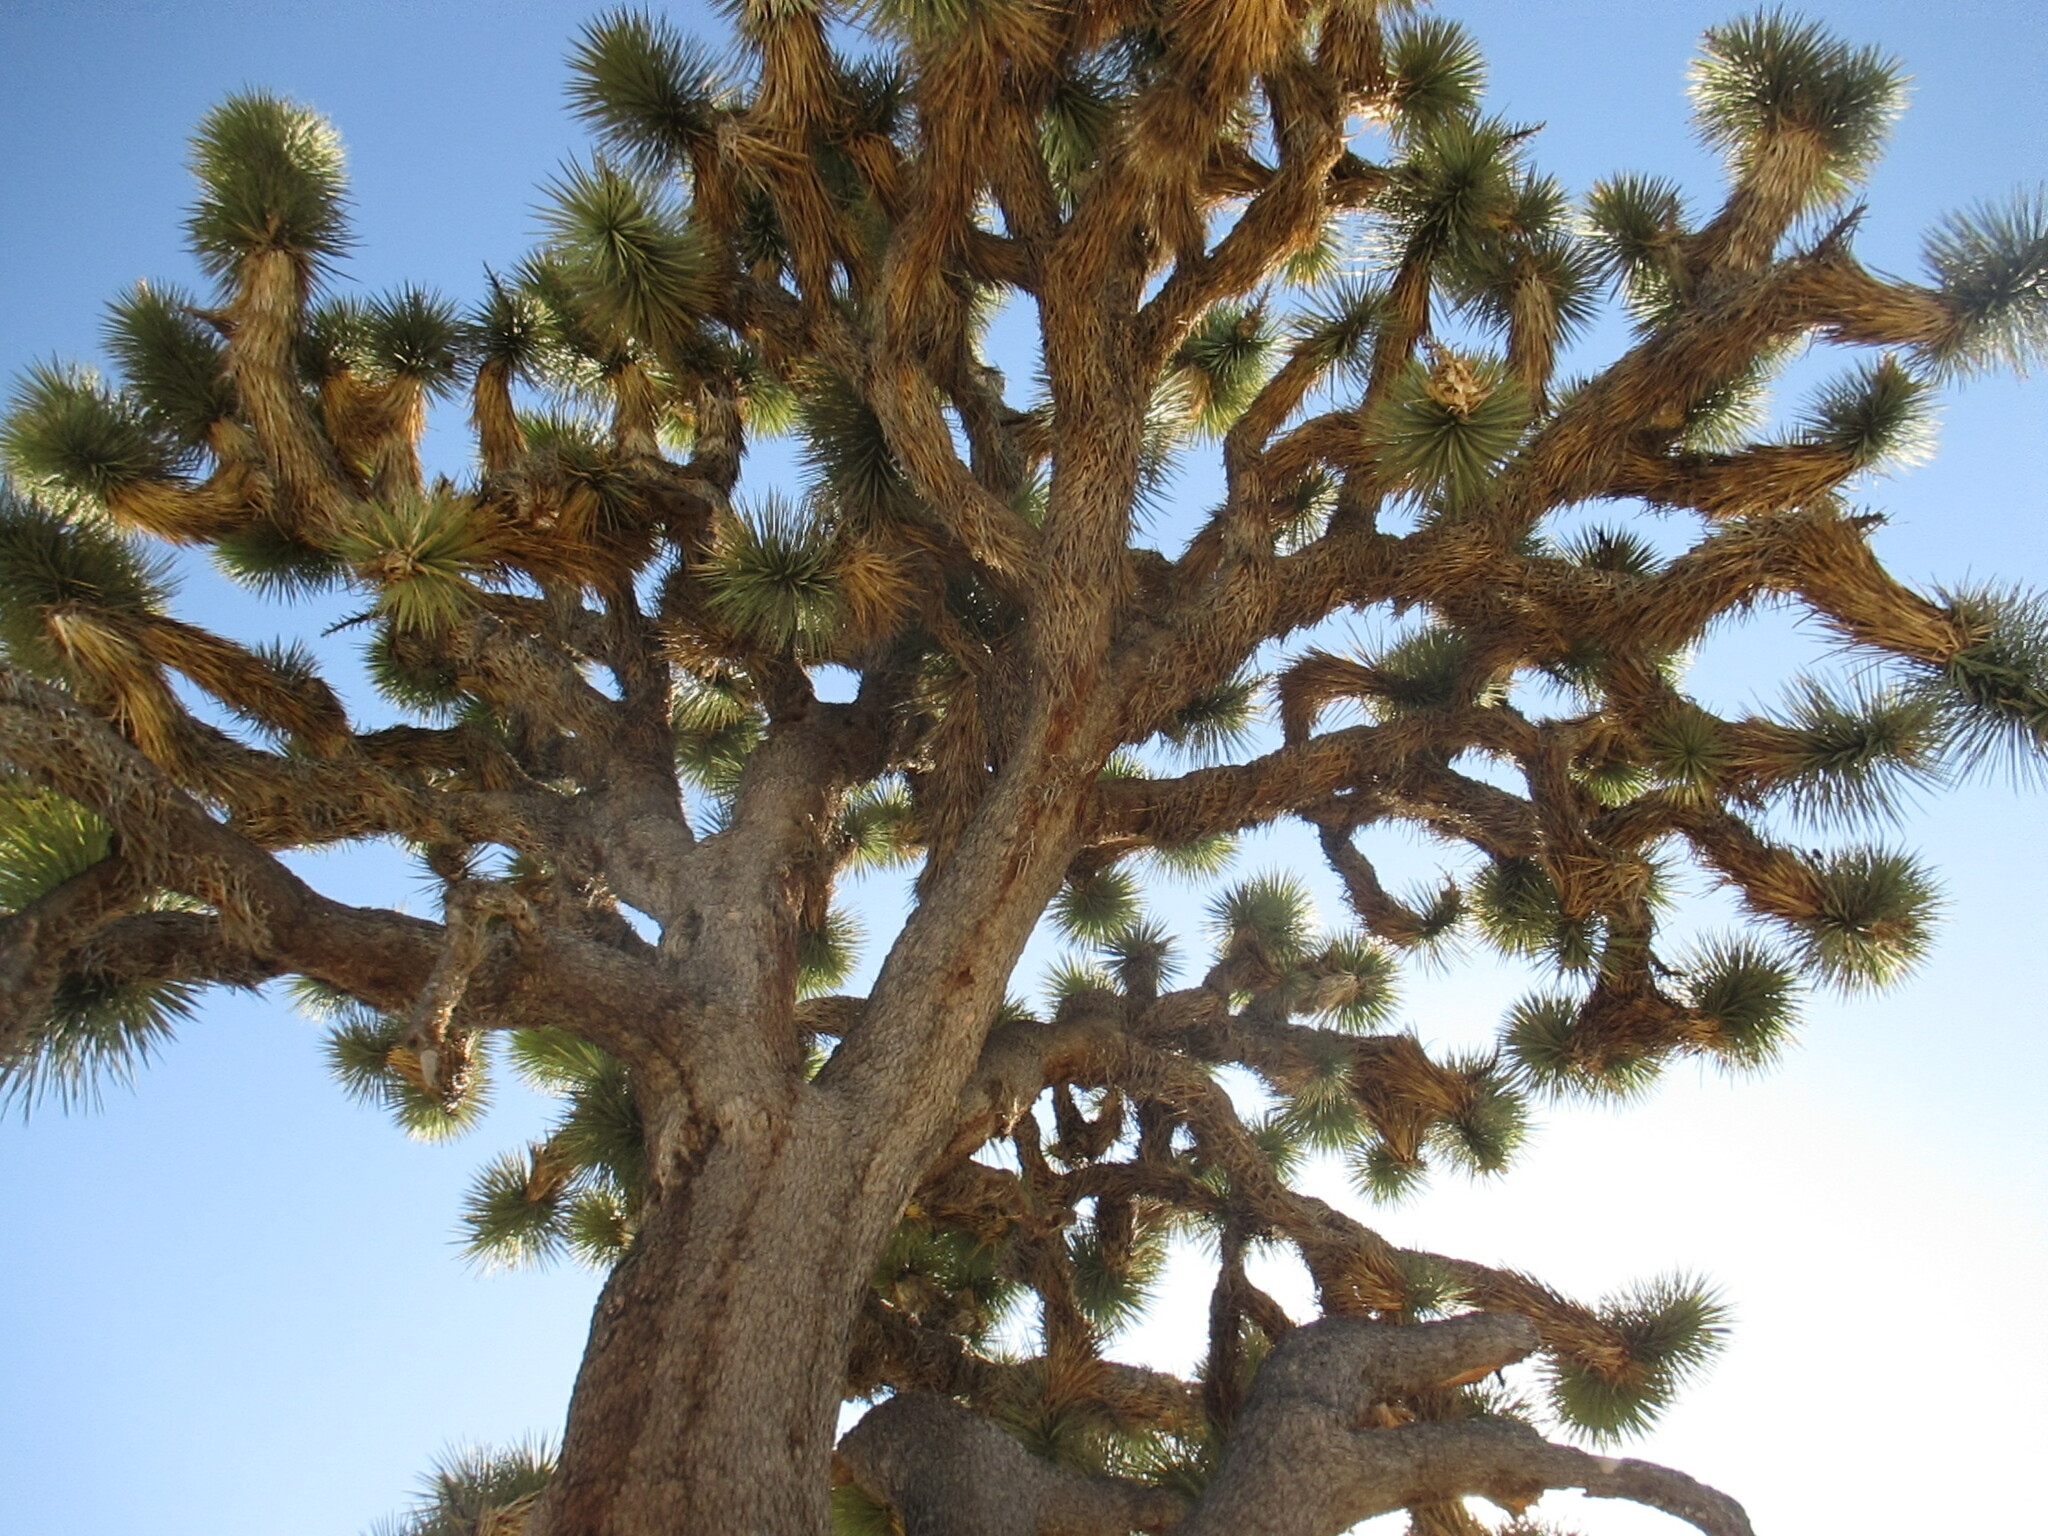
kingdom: Plantae
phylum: Tracheophyta
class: Liliopsida
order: Asparagales
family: Asparagaceae
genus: Yucca
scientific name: Yucca brevifolia
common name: Joshua tree
